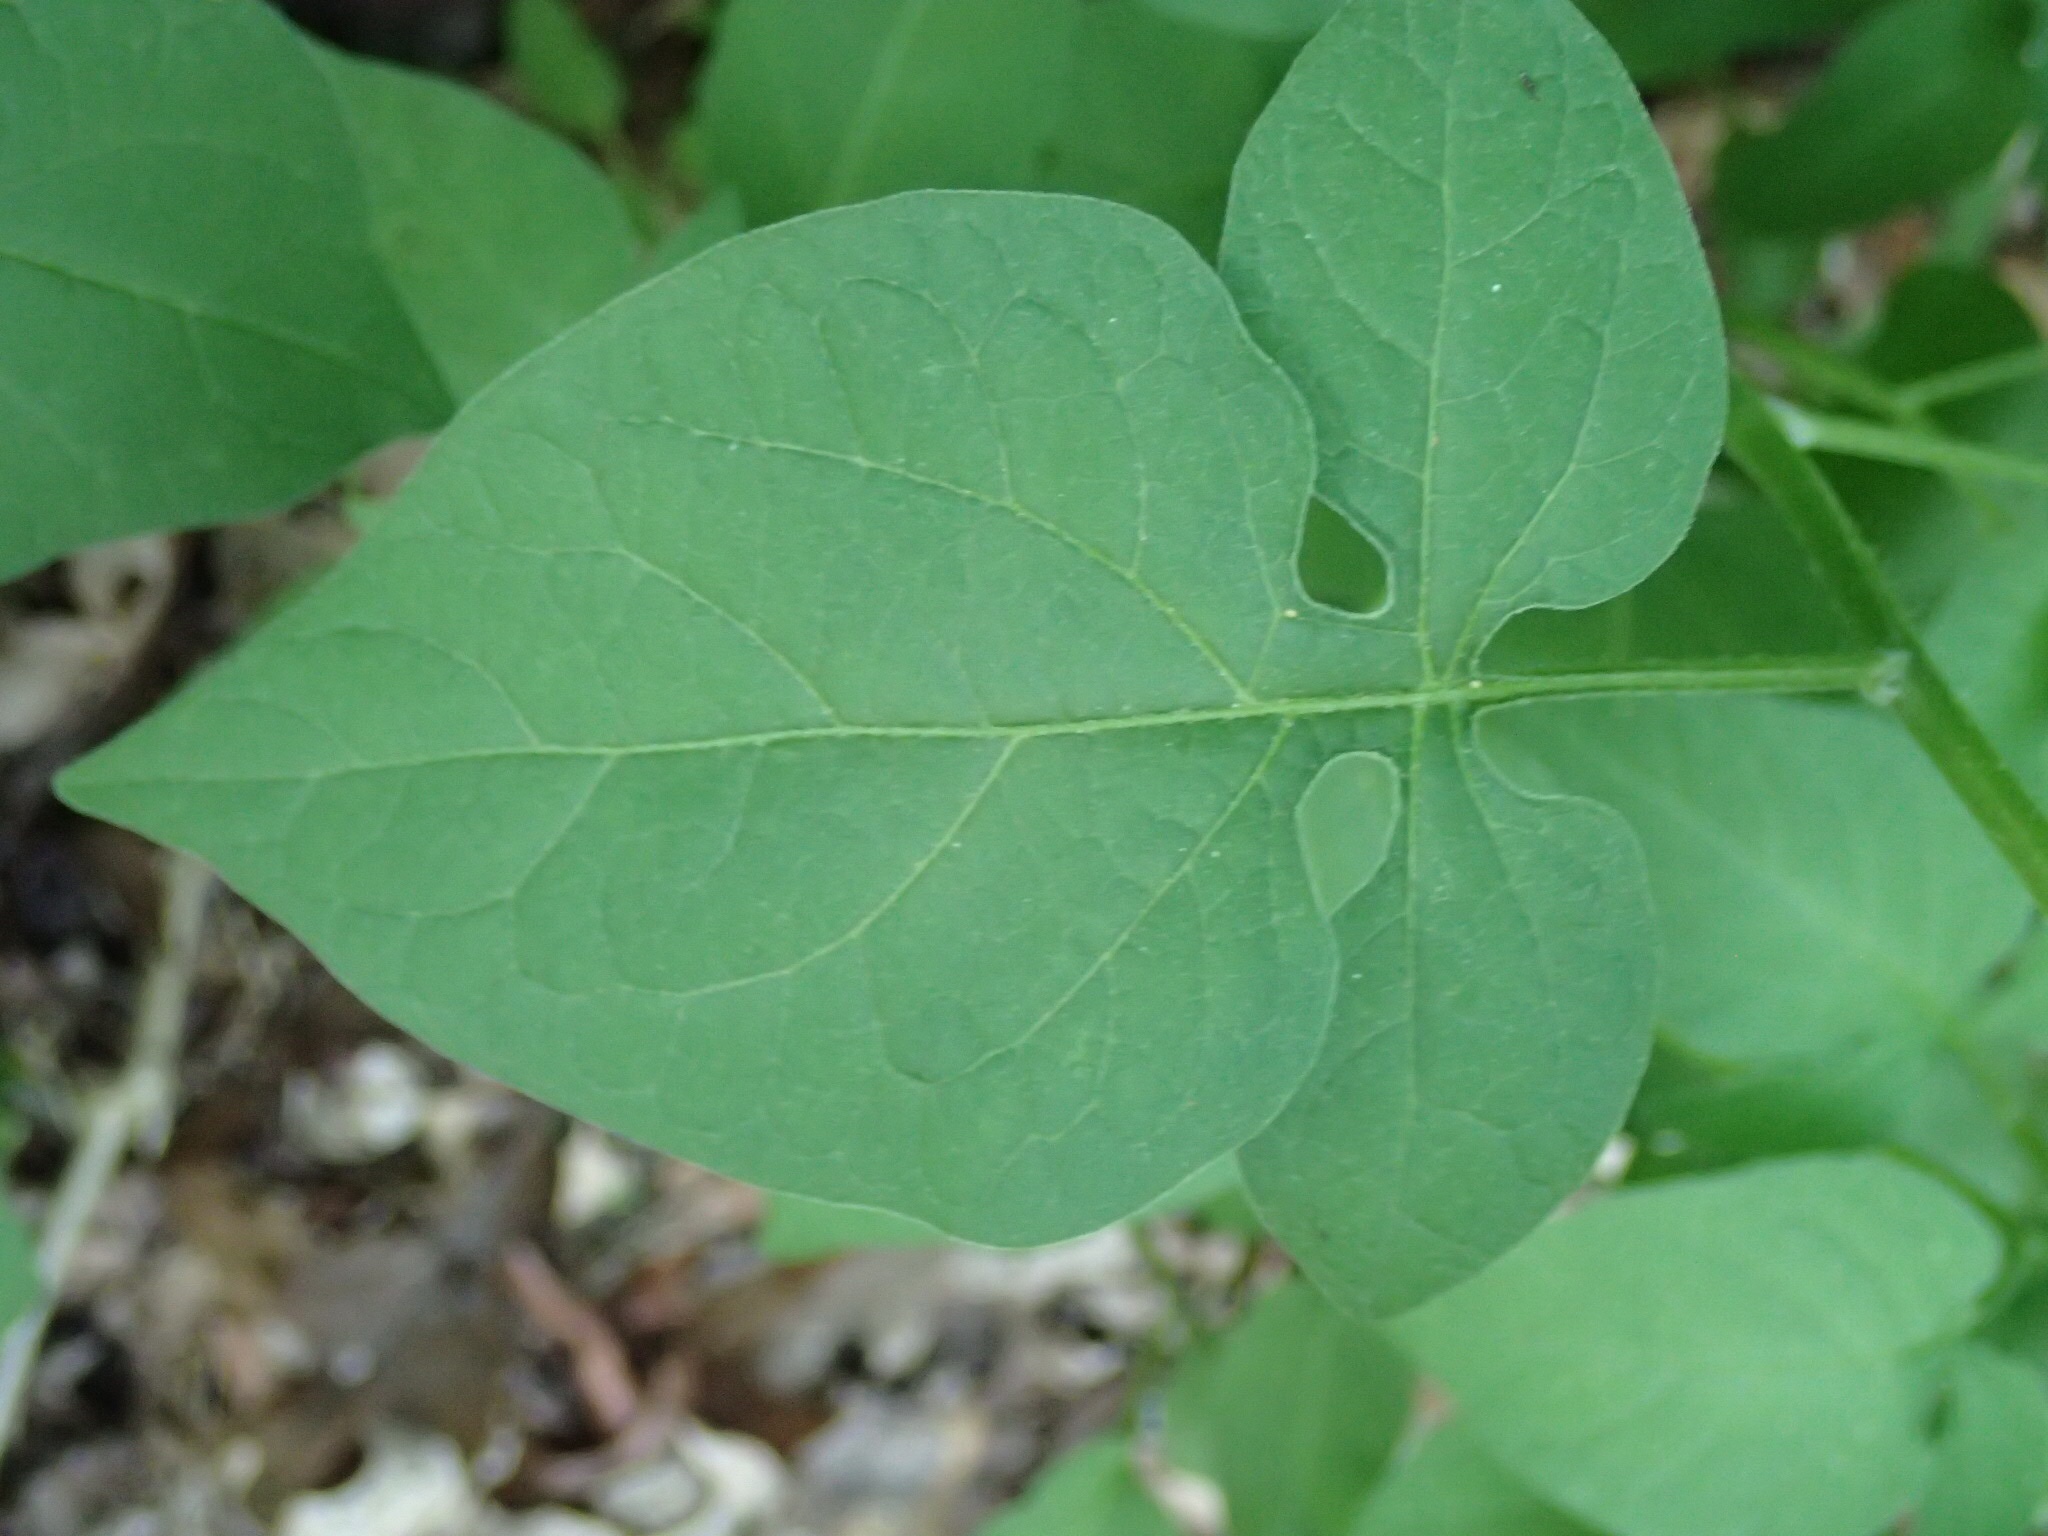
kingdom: Plantae
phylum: Tracheophyta
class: Magnoliopsida
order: Solanales
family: Solanaceae
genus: Solanum
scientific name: Solanum dulcamara
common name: Climbing nightshade
